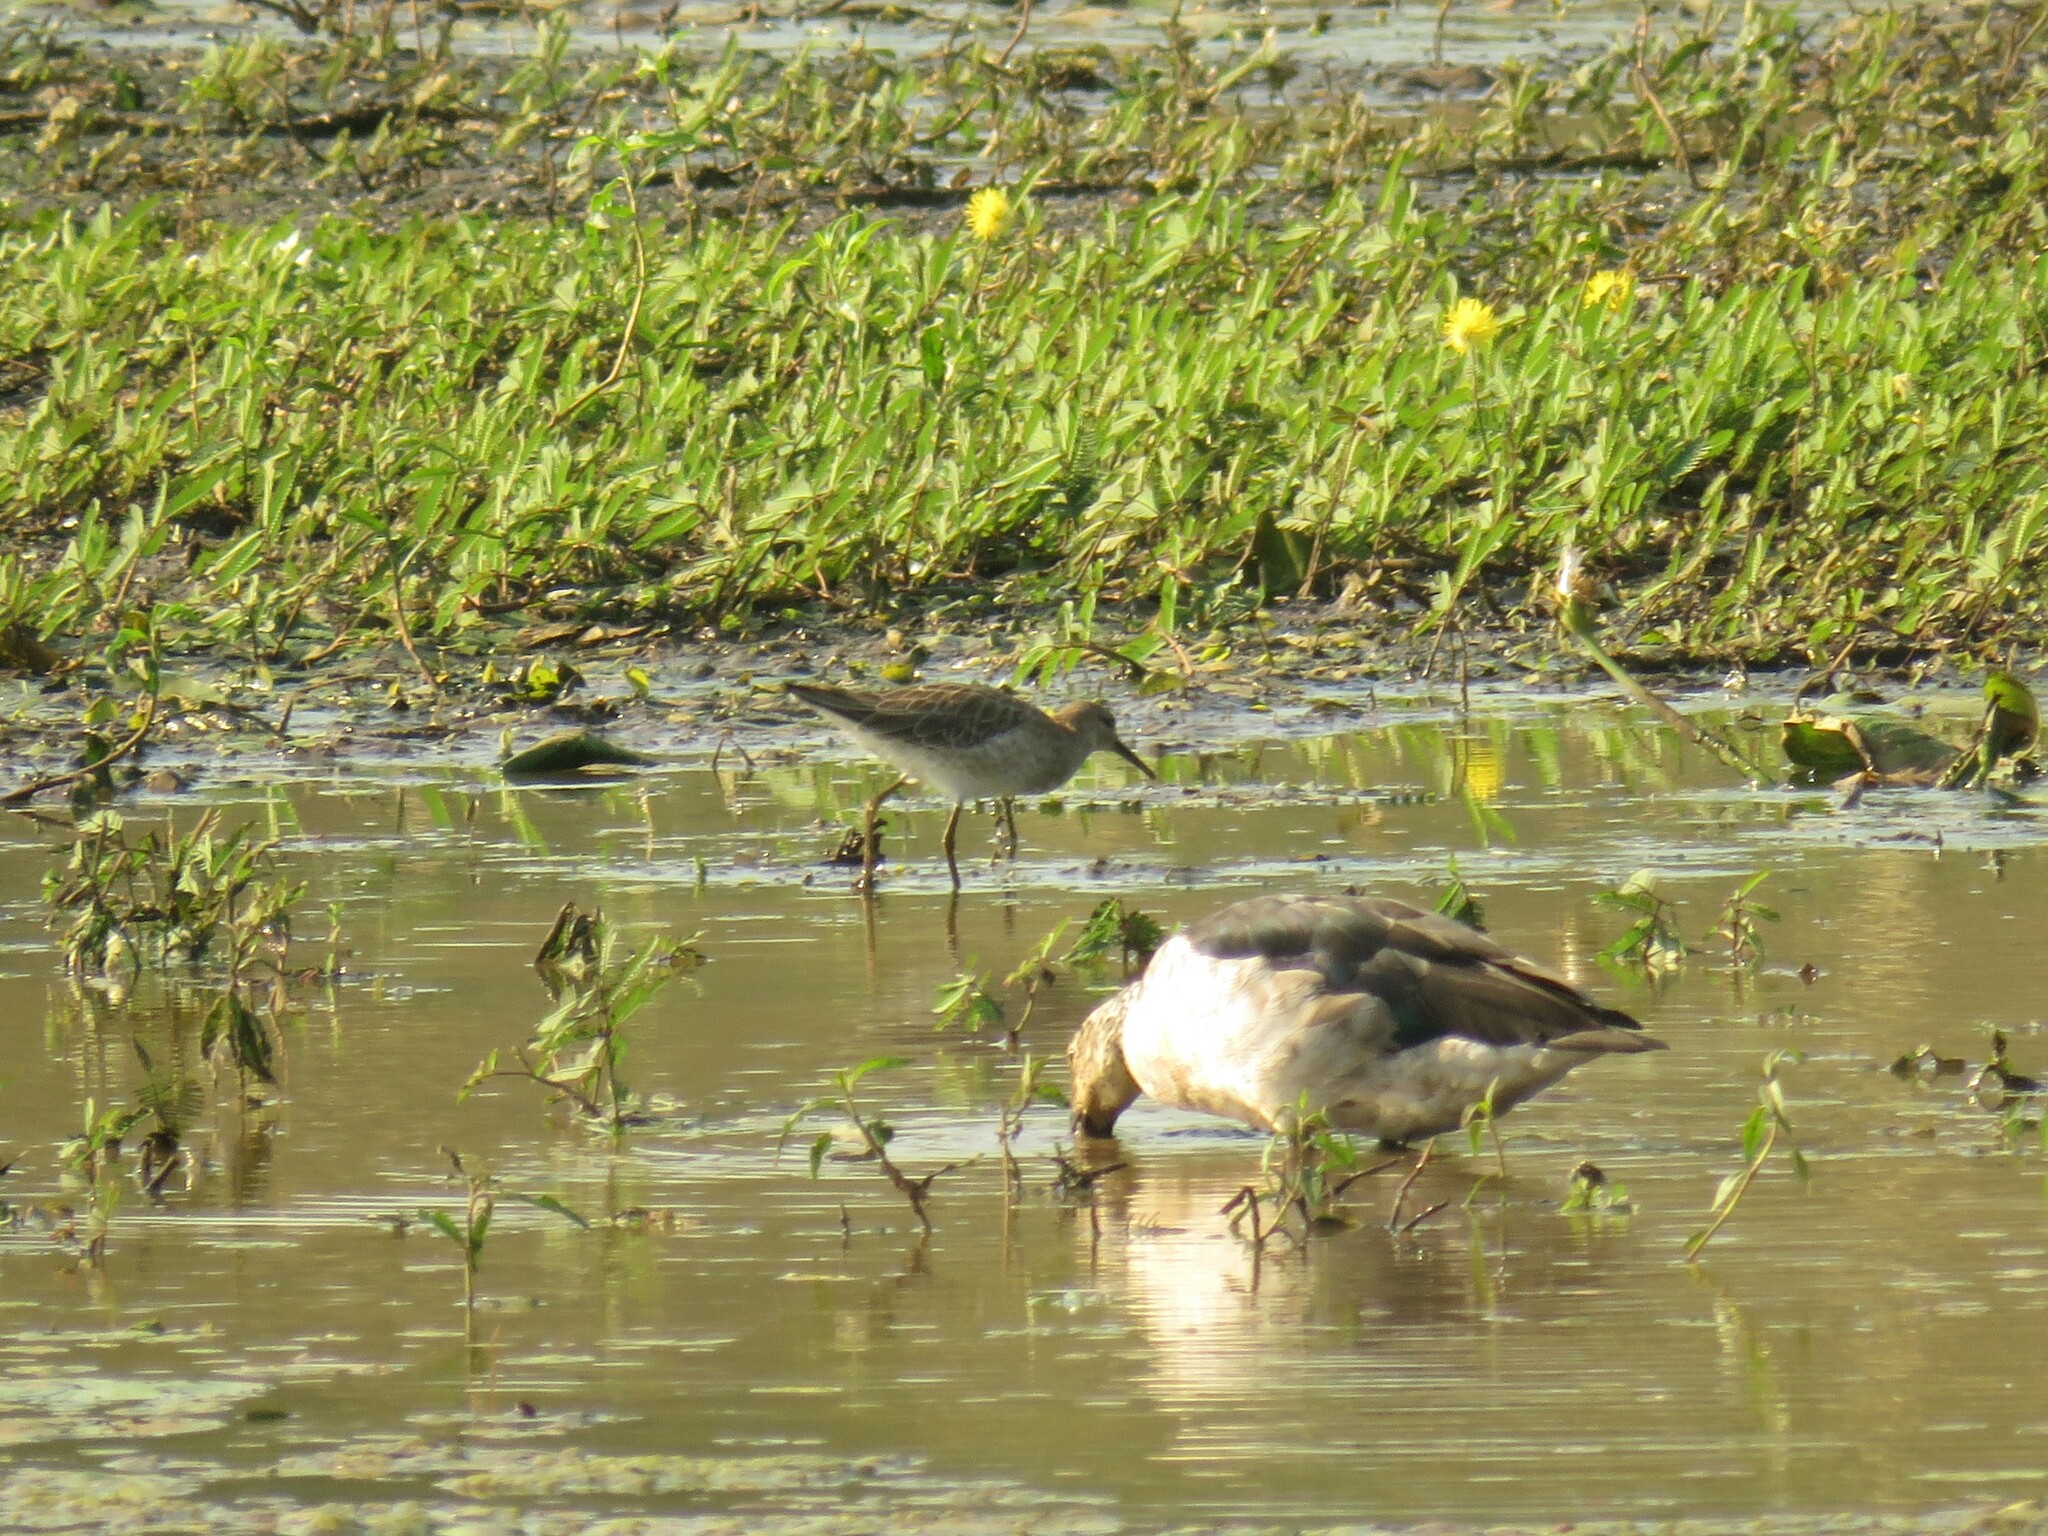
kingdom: Animalia
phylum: Chordata
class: Aves
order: Charadriiformes
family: Scolopacidae
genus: Calidris
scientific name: Calidris pugnax
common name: Ruff
